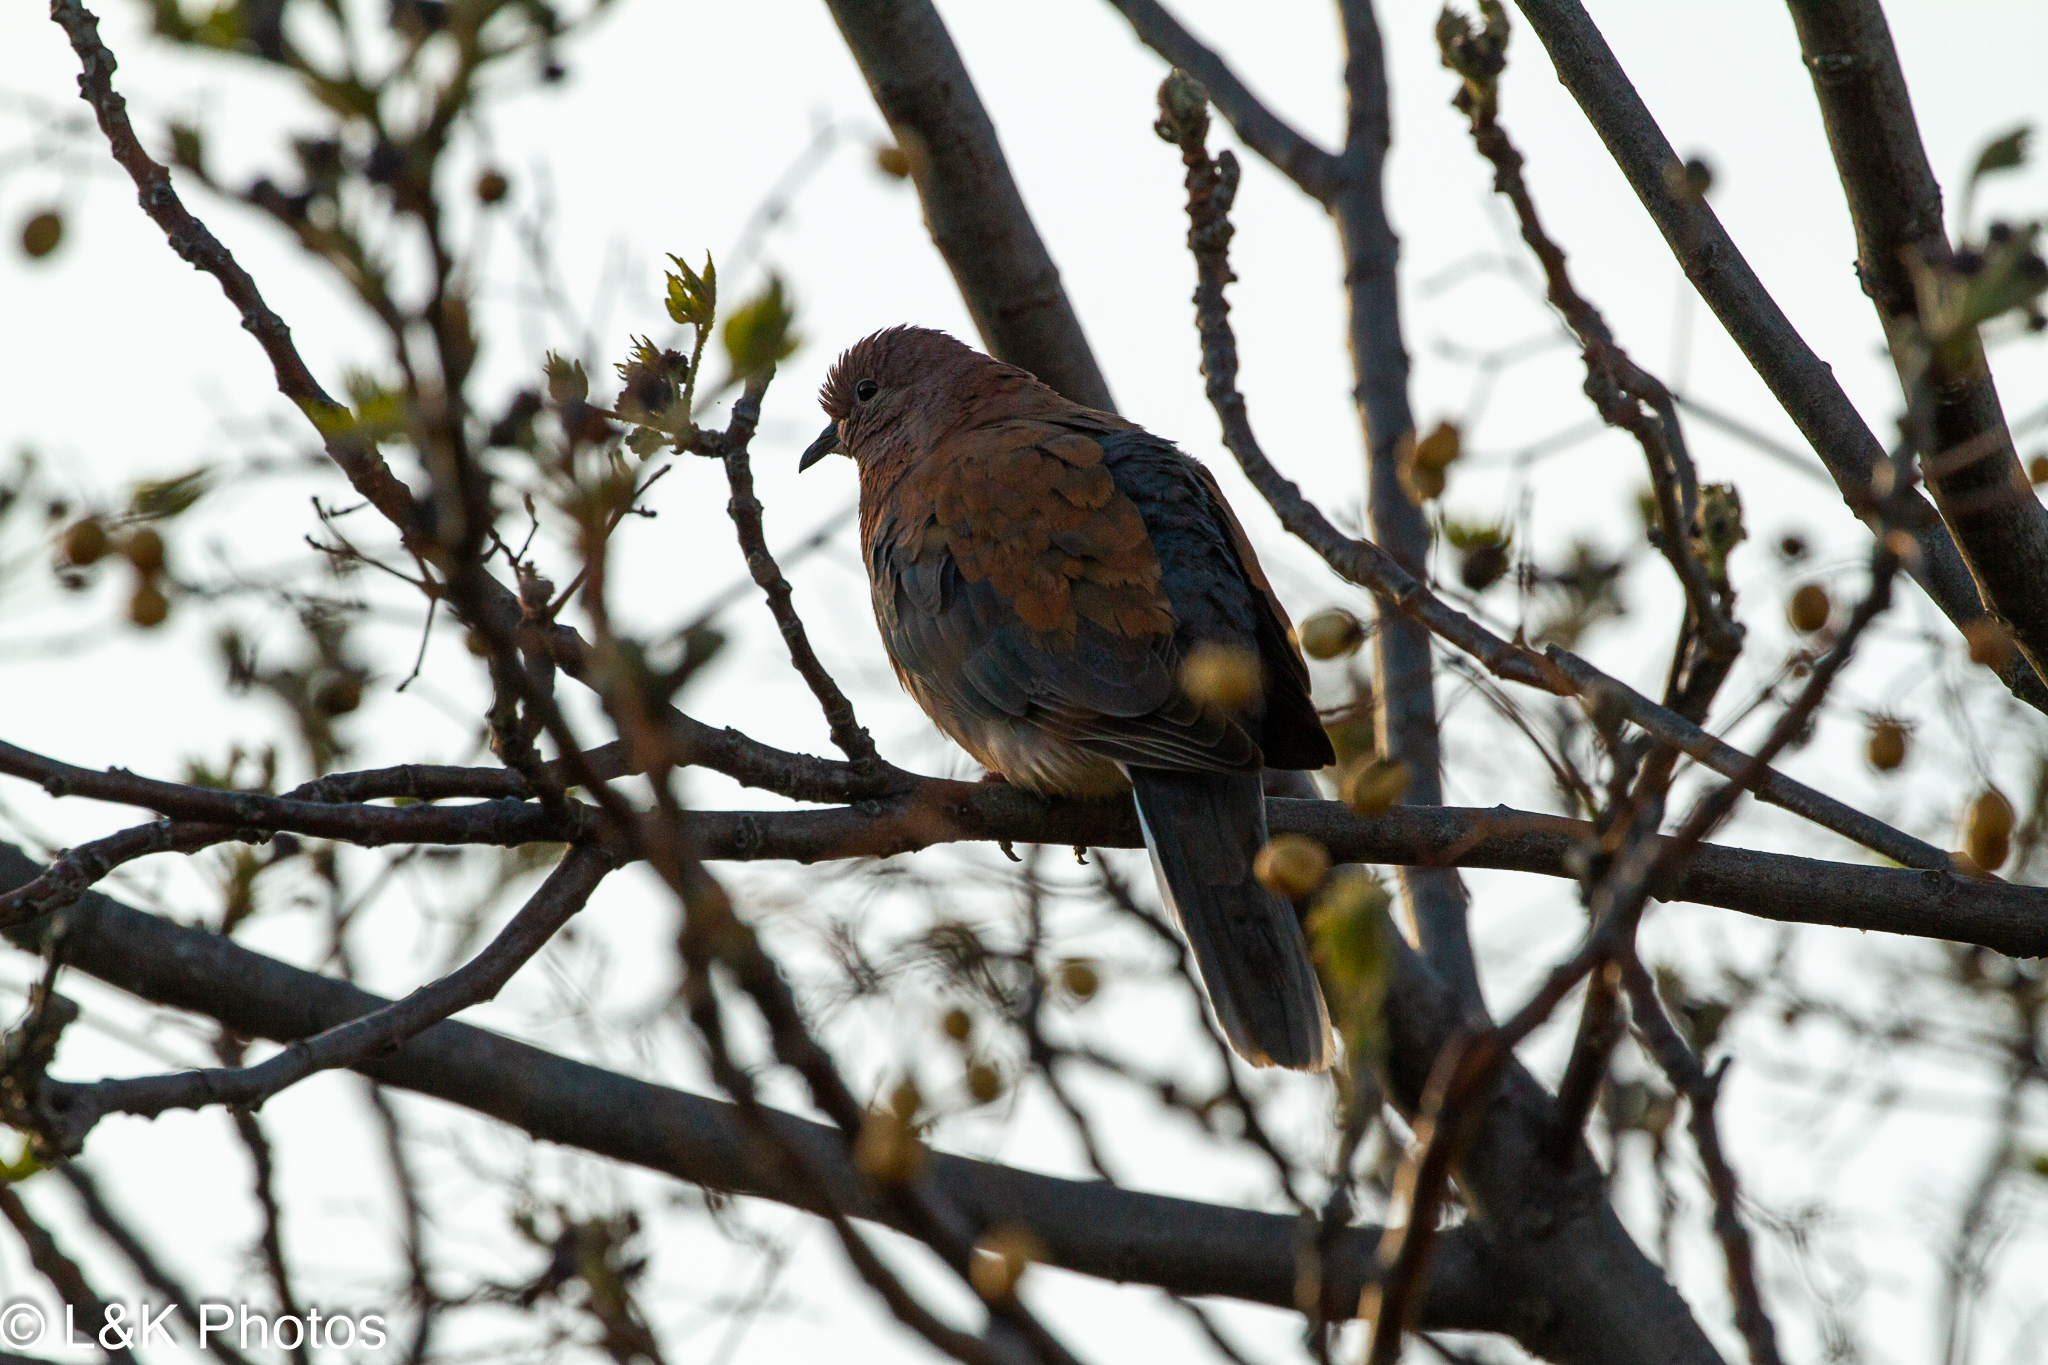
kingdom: Animalia
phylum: Chordata
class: Aves
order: Columbiformes
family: Columbidae
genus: Spilopelia
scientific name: Spilopelia senegalensis
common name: Laughing dove
